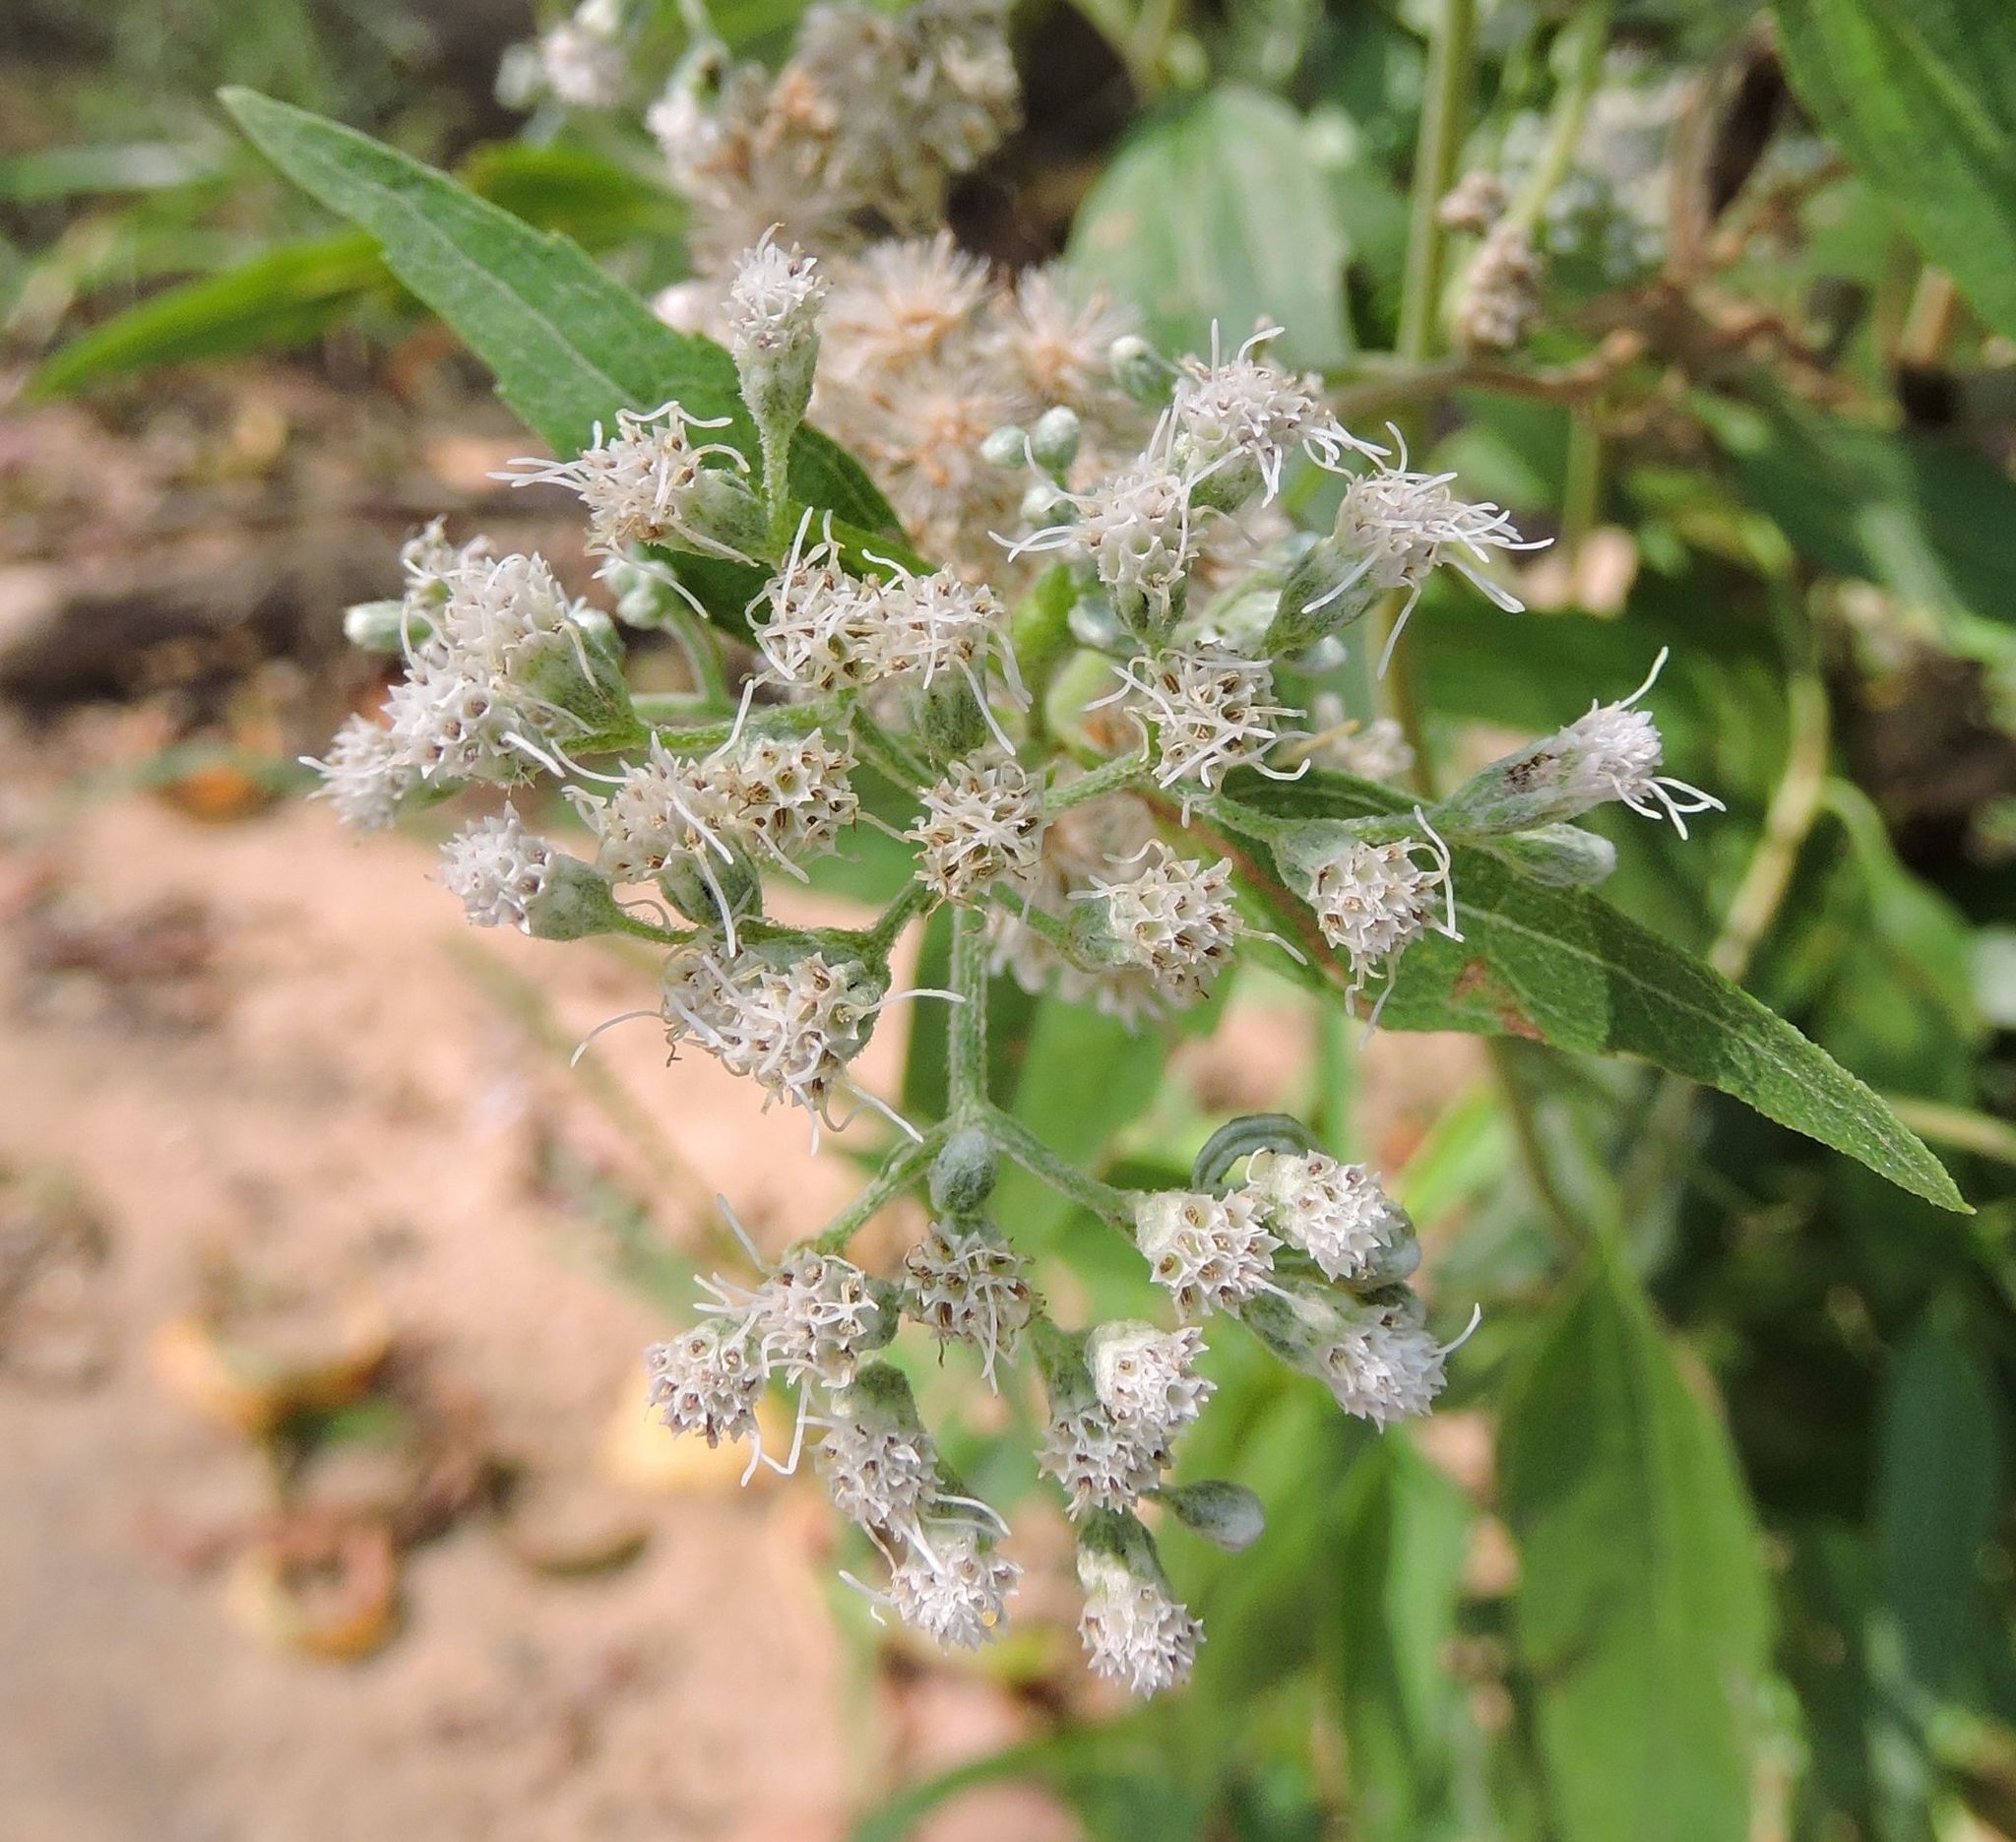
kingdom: Plantae
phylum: Tracheophyta
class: Magnoliopsida
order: Asterales
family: Asteraceae
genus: Eupatorium
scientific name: Eupatorium serotinum
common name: Late boneset
